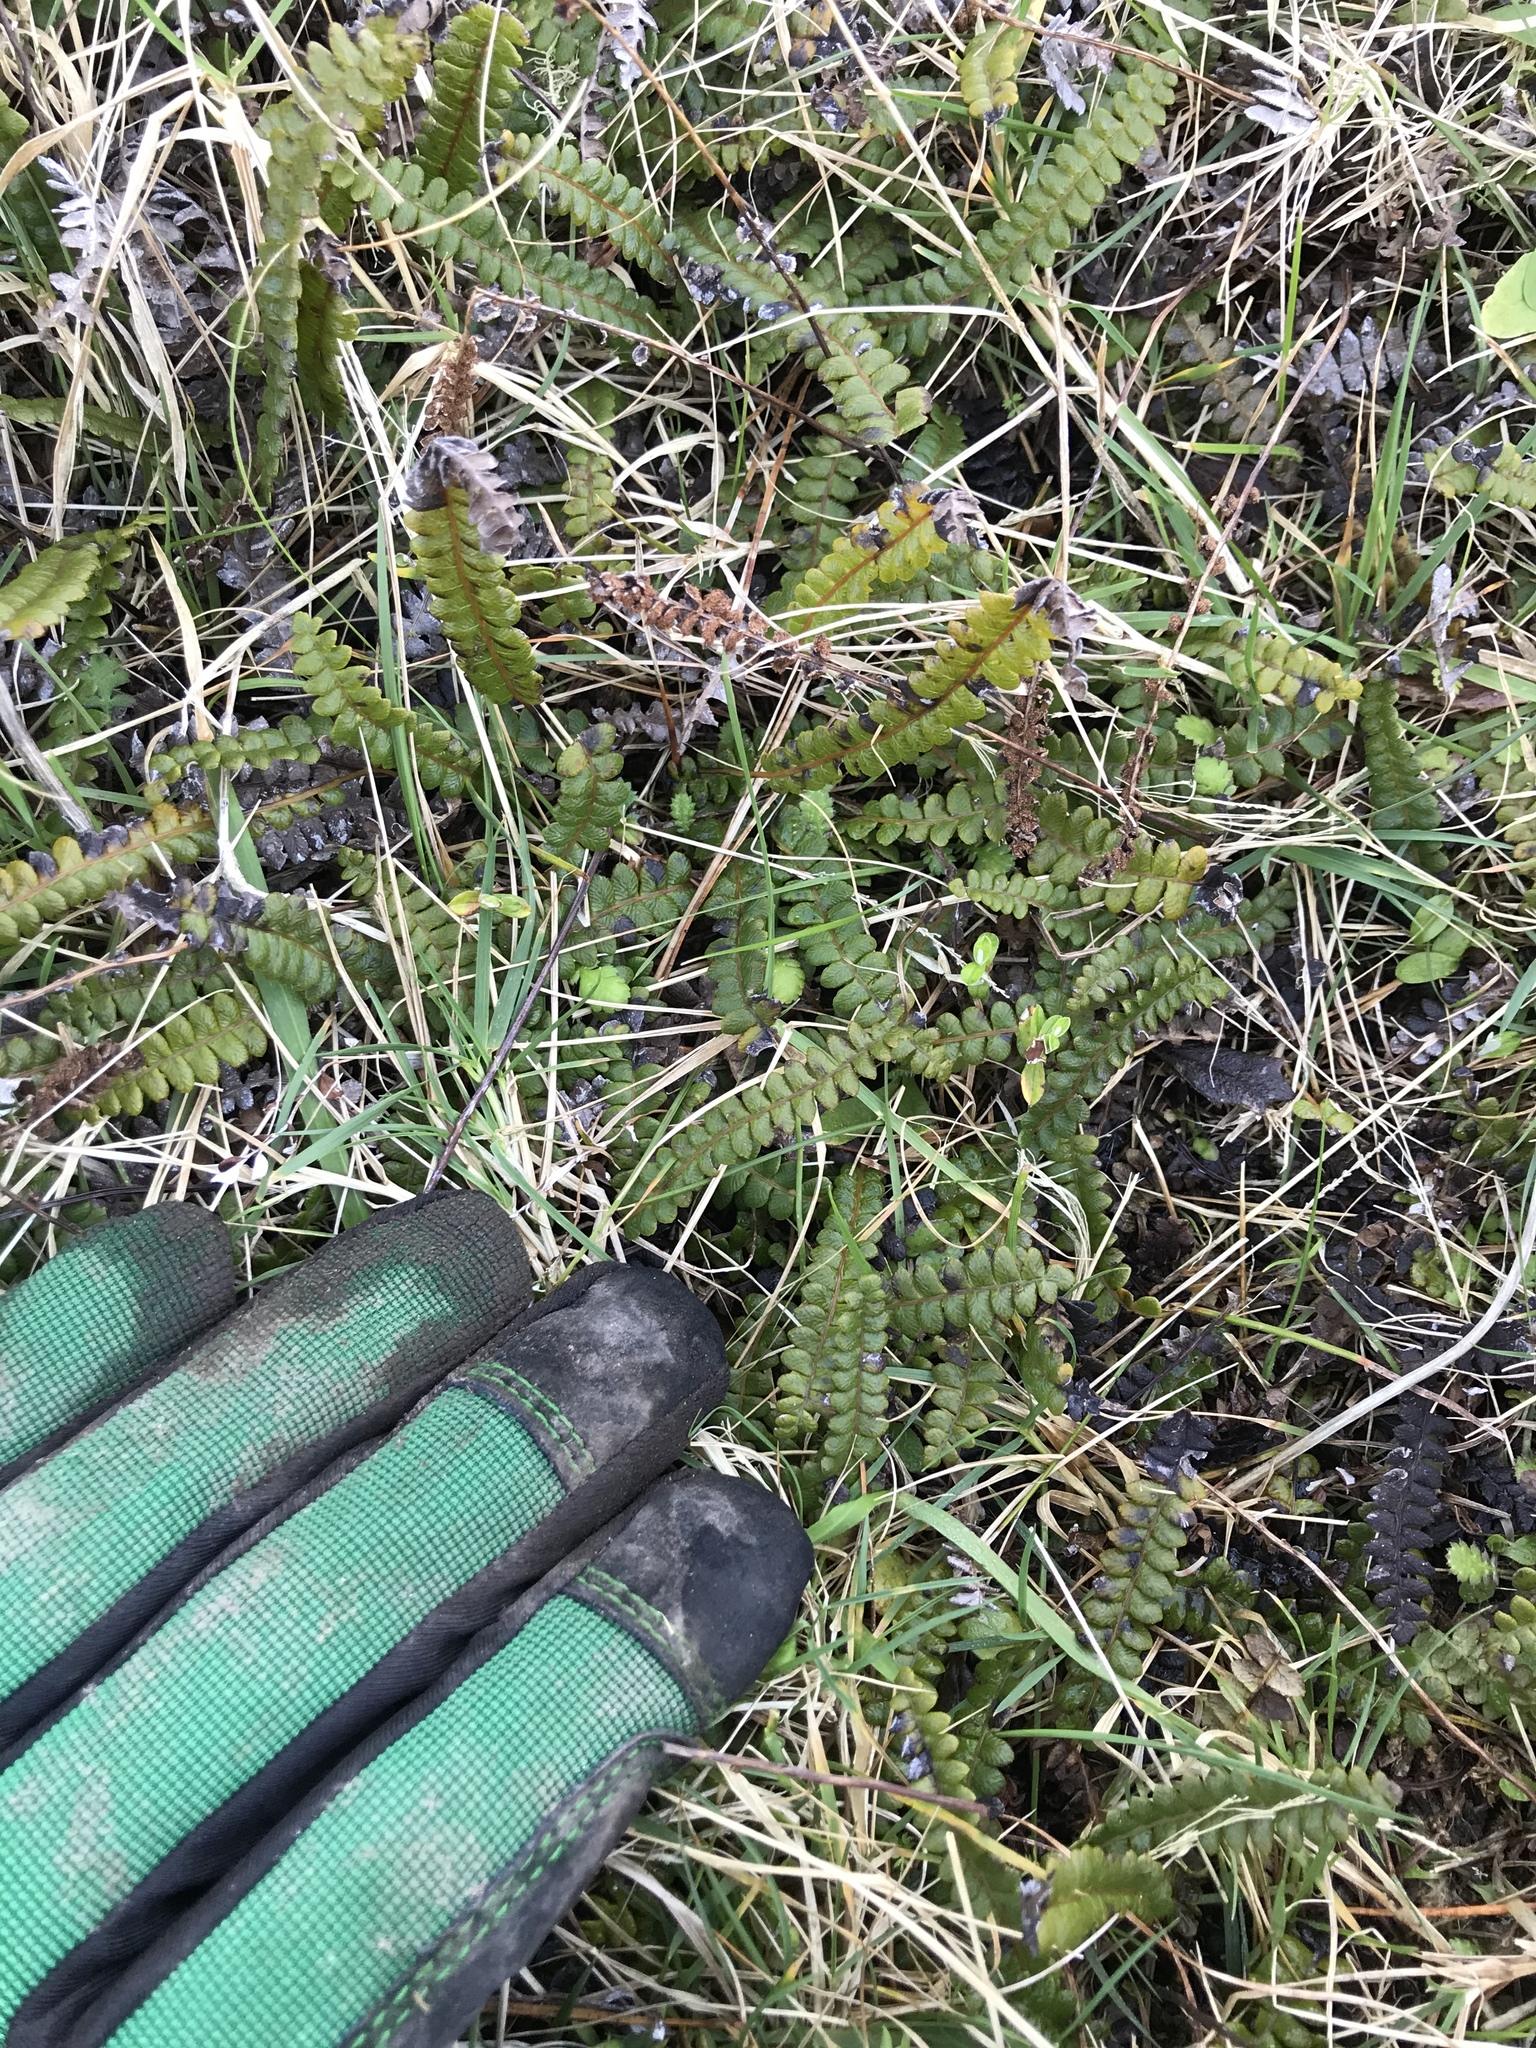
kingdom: Plantae
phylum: Tracheophyta
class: Polypodiopsida
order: Polypodiales
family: Blechnaceae
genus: Austroblechnum
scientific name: Austroblechnum penna-marina
